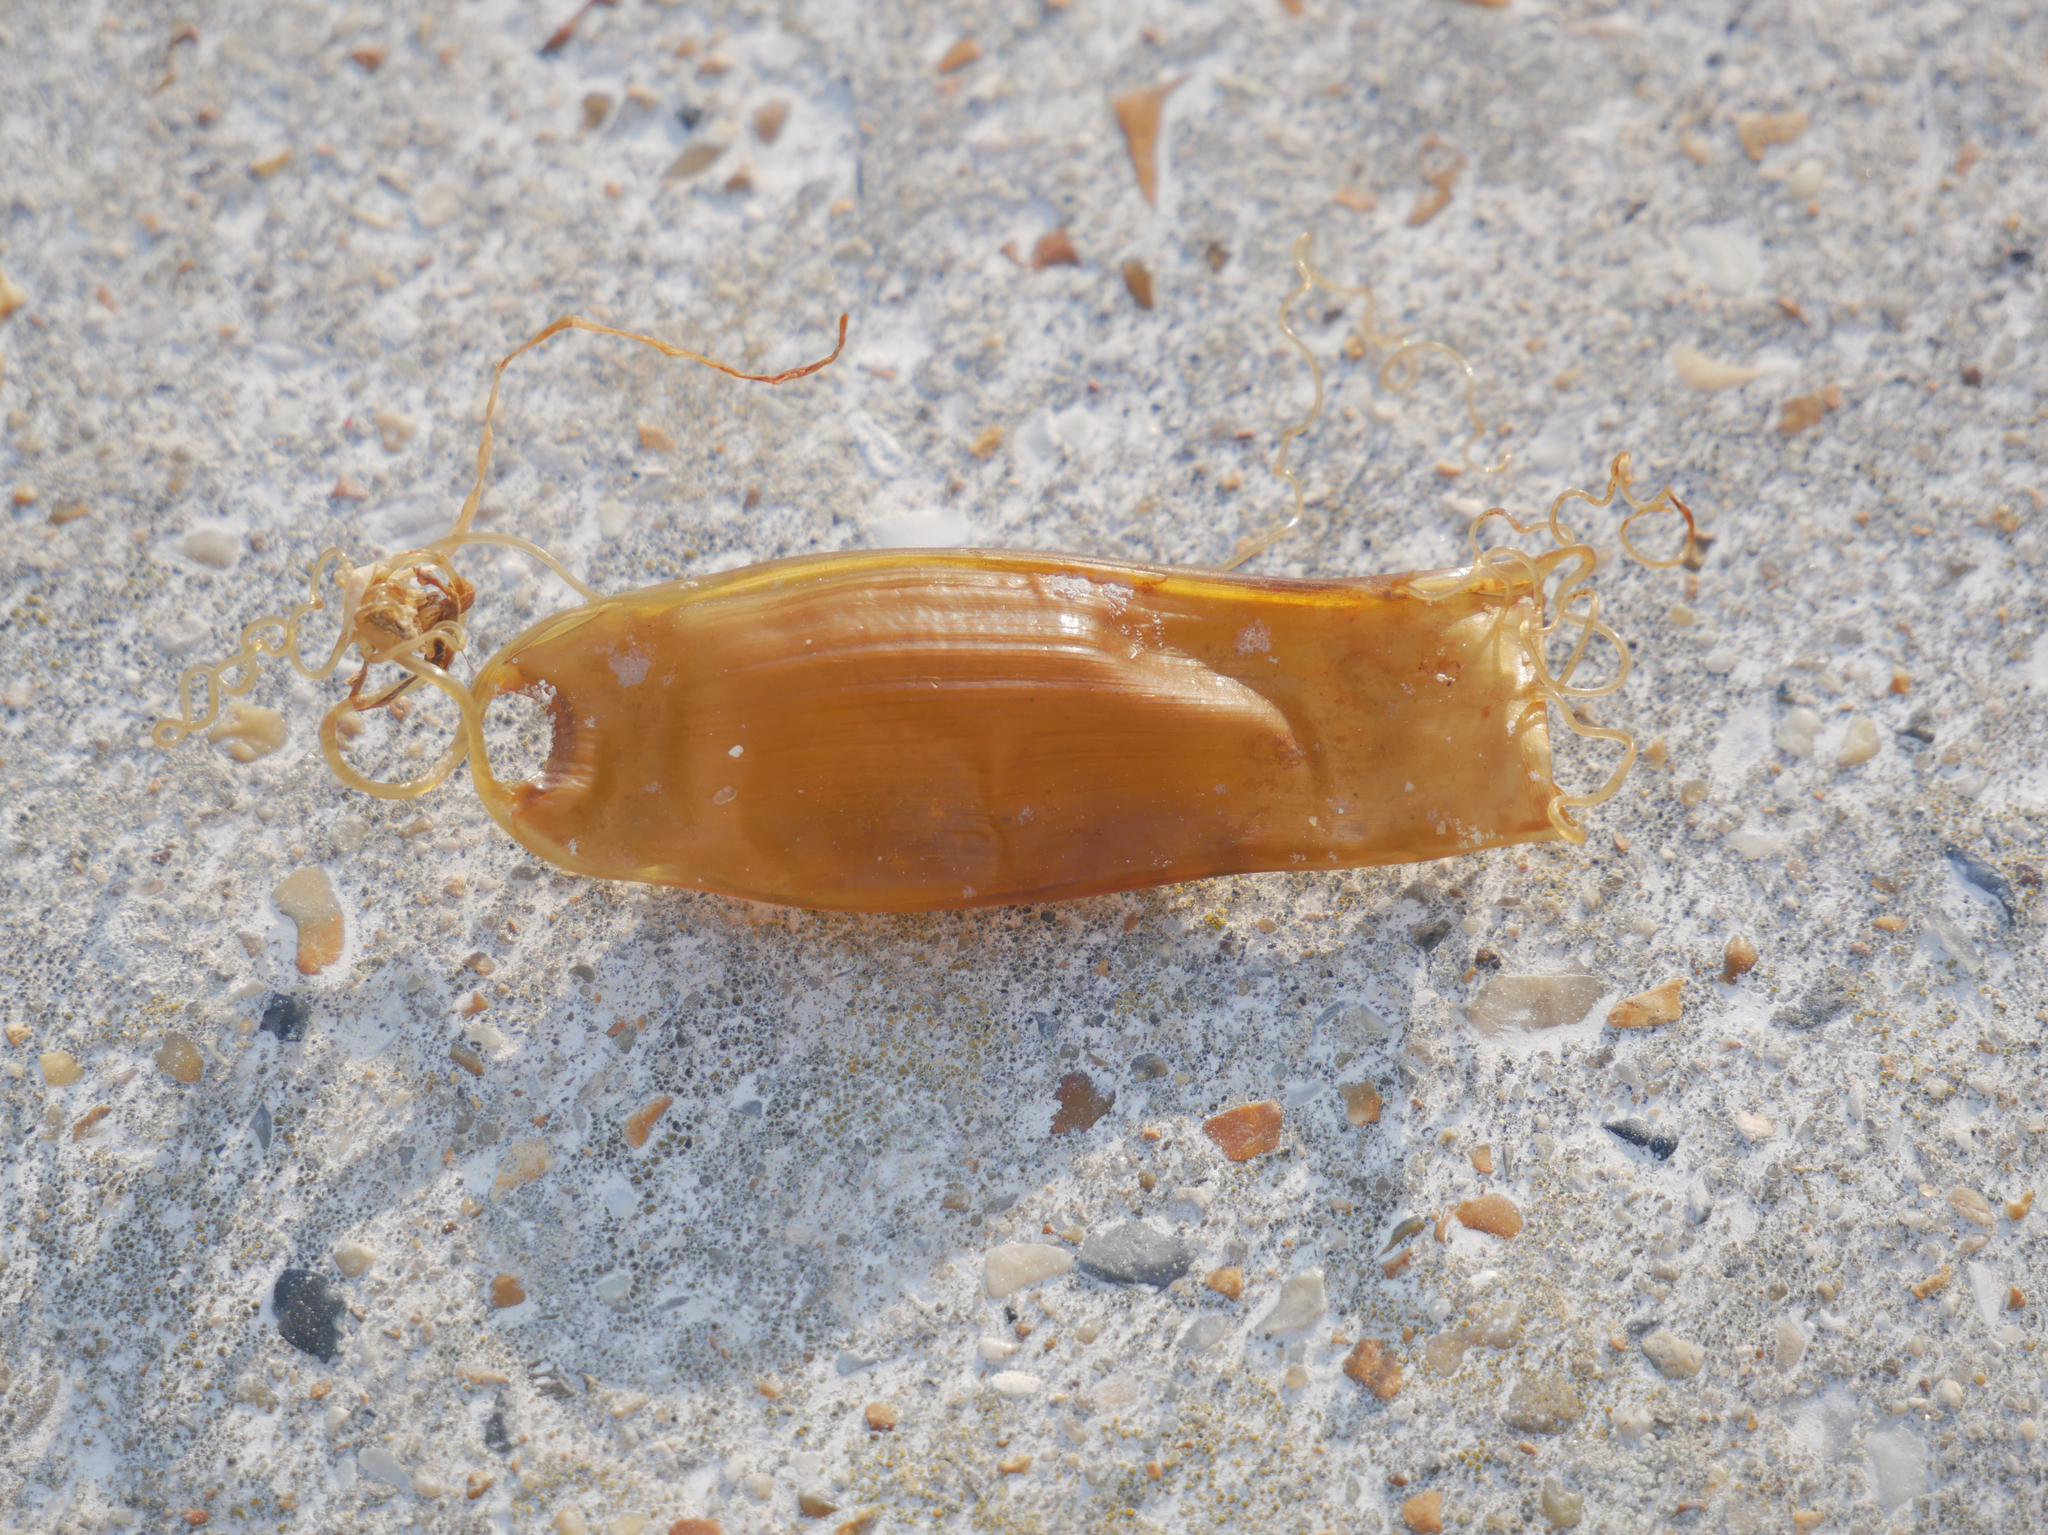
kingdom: Animalia
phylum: Chordata
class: Elasmobranchii
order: Carcharhiniformes
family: Scyliorhinidae
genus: Scyliorhinus
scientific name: Scyliorhinus canicula
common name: Lesser spotted dogfish
